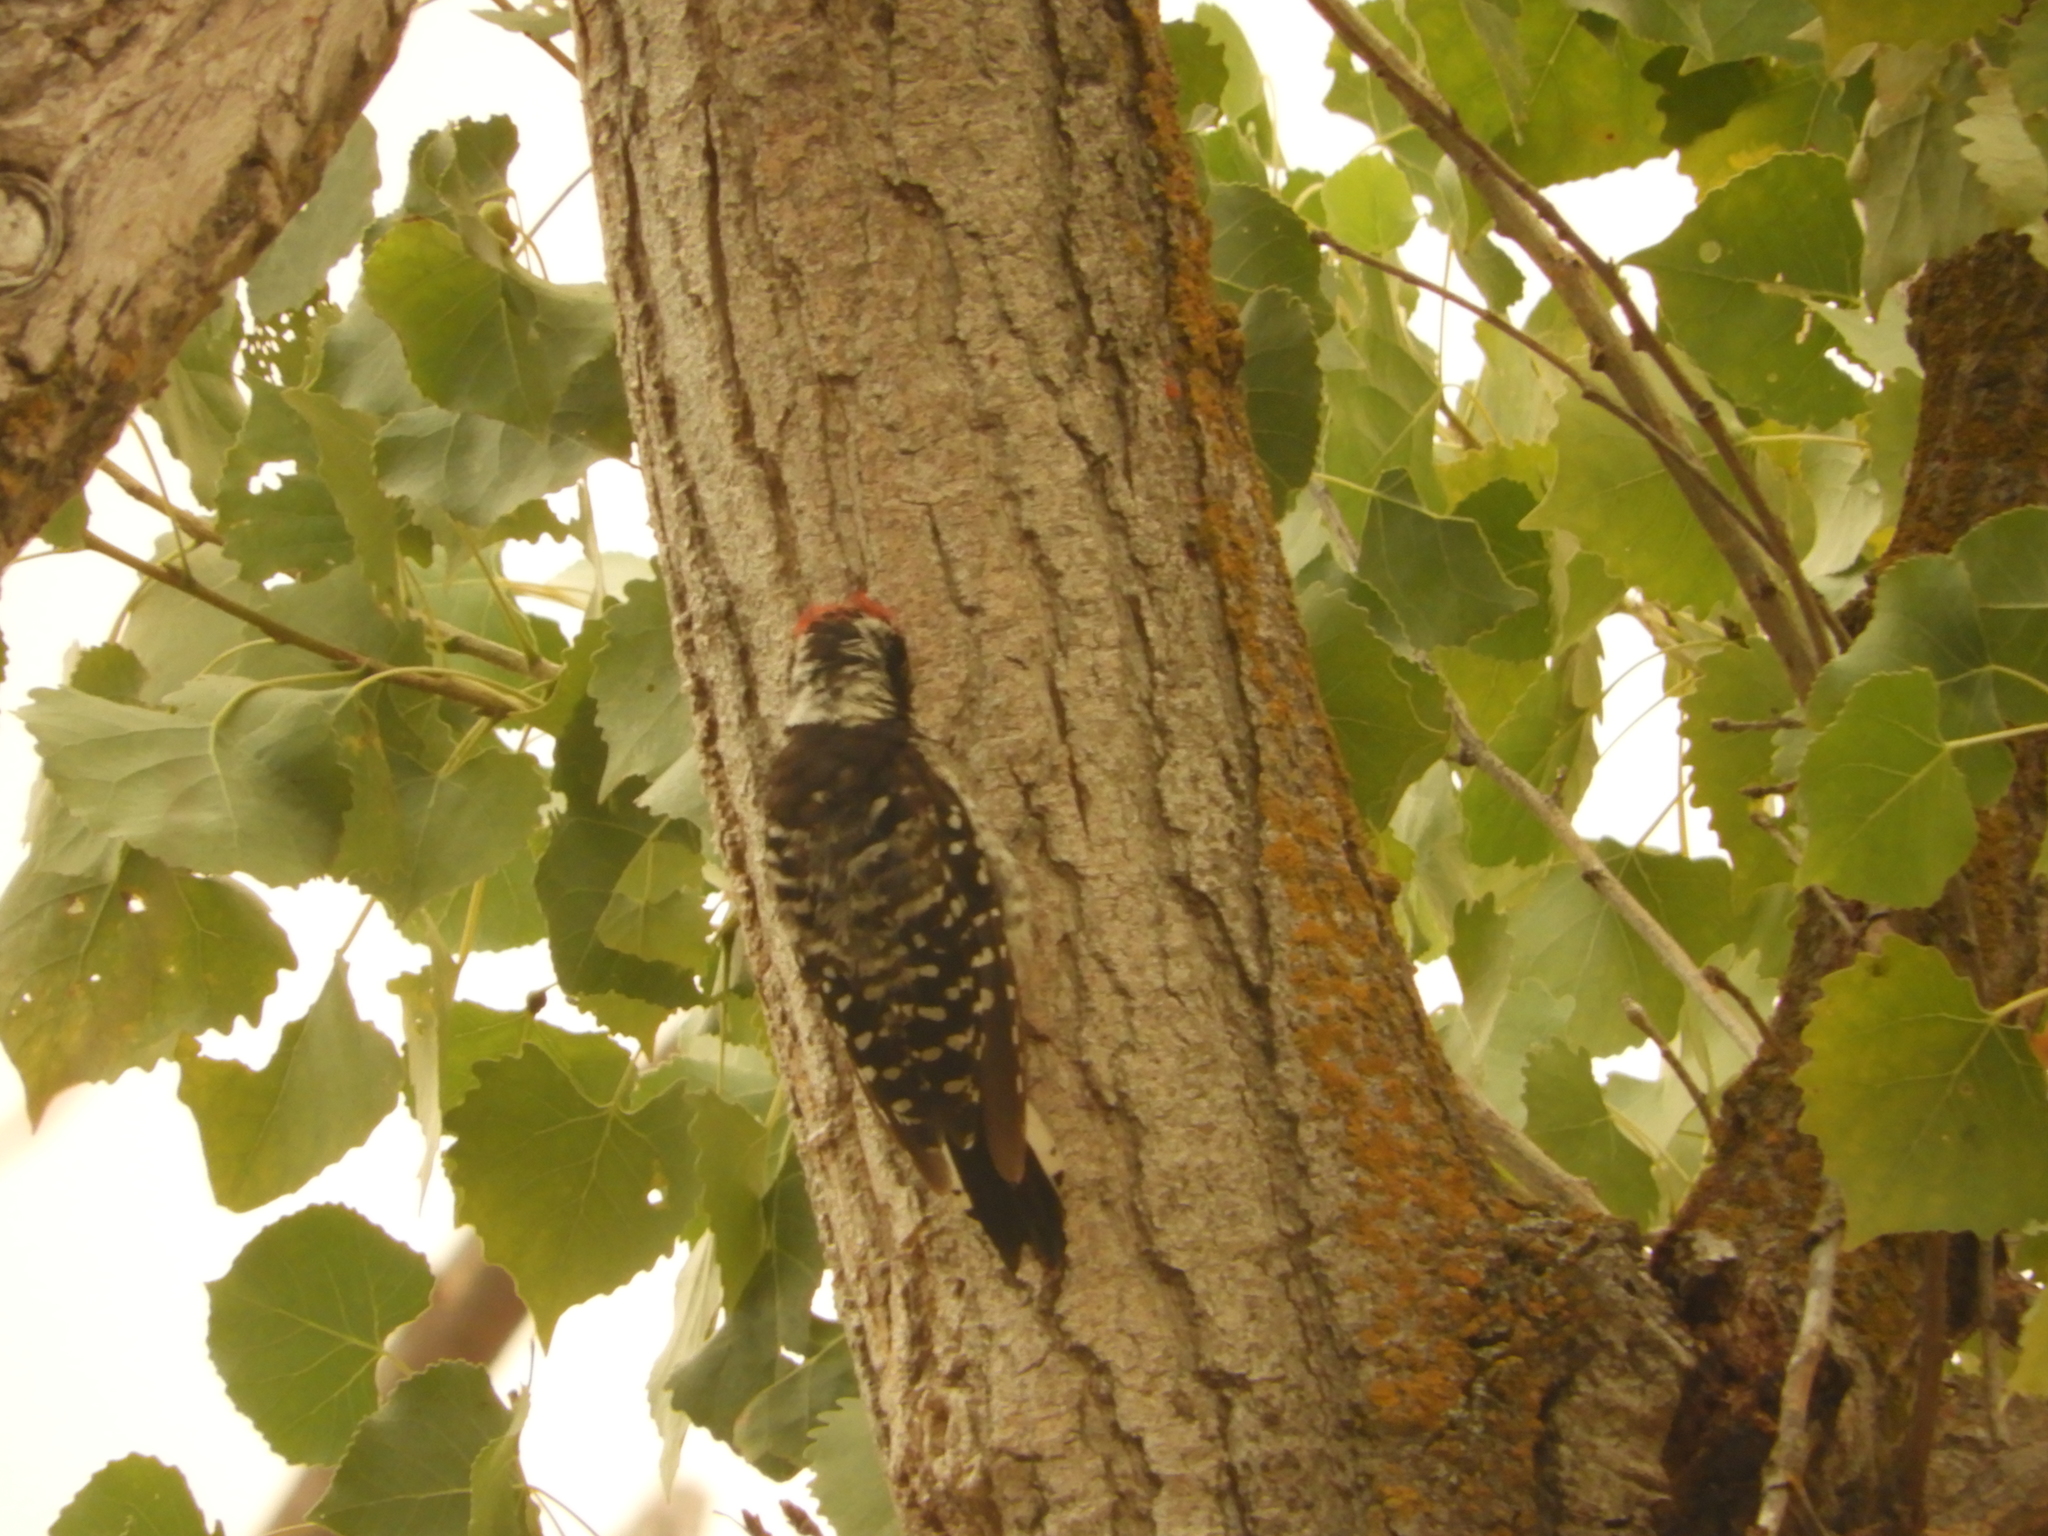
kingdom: Animalia
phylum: Chordata
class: Aves
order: Piciformes
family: Picidae
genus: Dryobates
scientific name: Dryobates nuttallii
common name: Nuttall's woodpecker
